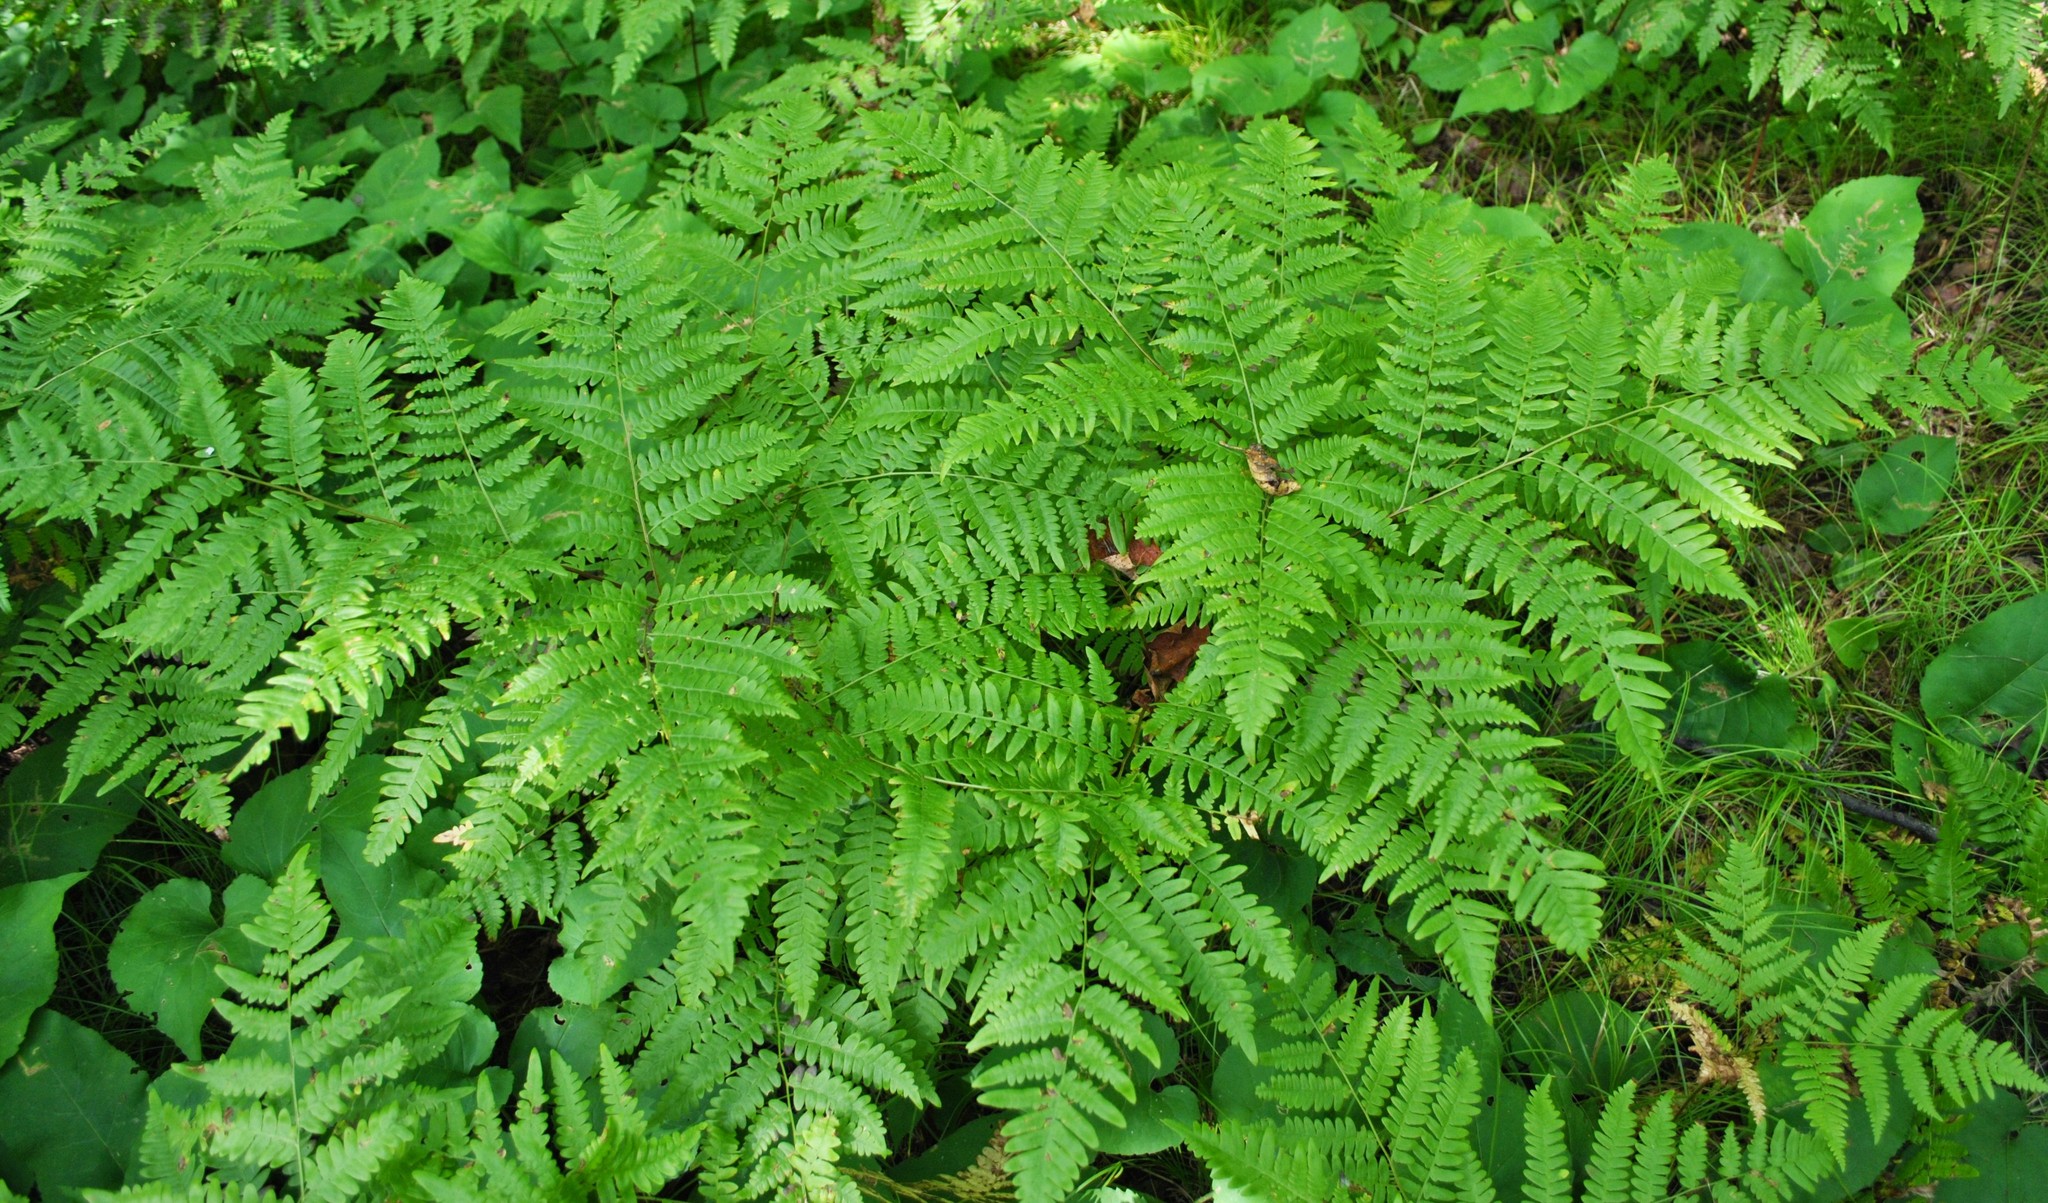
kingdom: Plantae
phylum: Tracheophyta
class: Polypodiopsida
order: Polypodiales
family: Dennstaedtiaceae
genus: Pteridium
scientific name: Pteridium aquilinum
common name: Bracken
